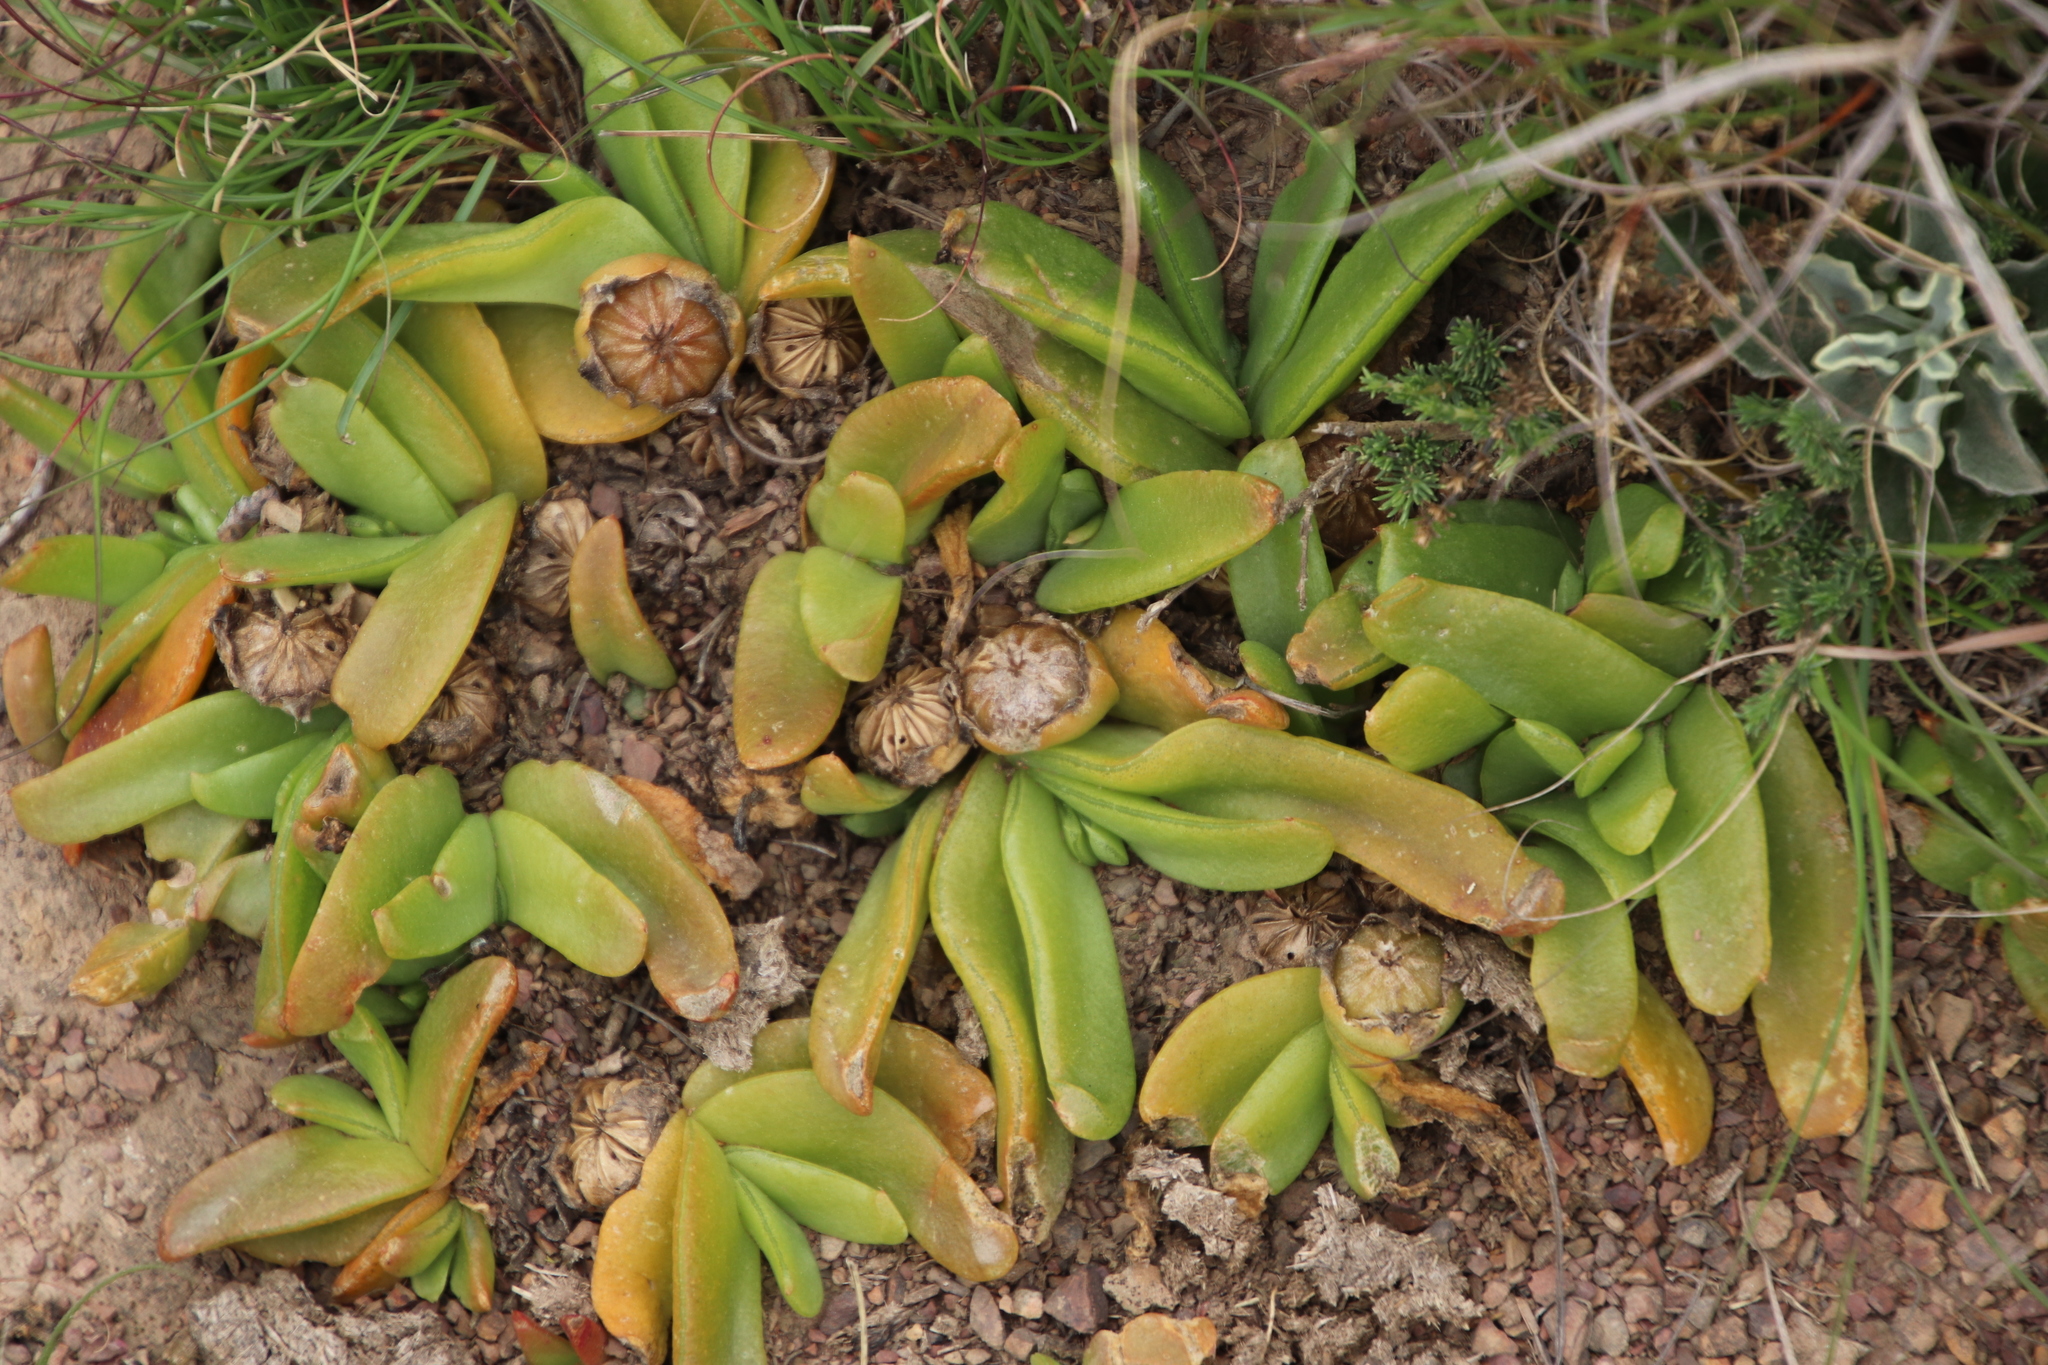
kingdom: Plantae
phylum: Tracheophyta
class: Magnoliopsida
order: Caryophyllales
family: Aizoaceae
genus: Glottiphyllum
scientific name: Glottiphyllum depressum
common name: Fig-marigold
